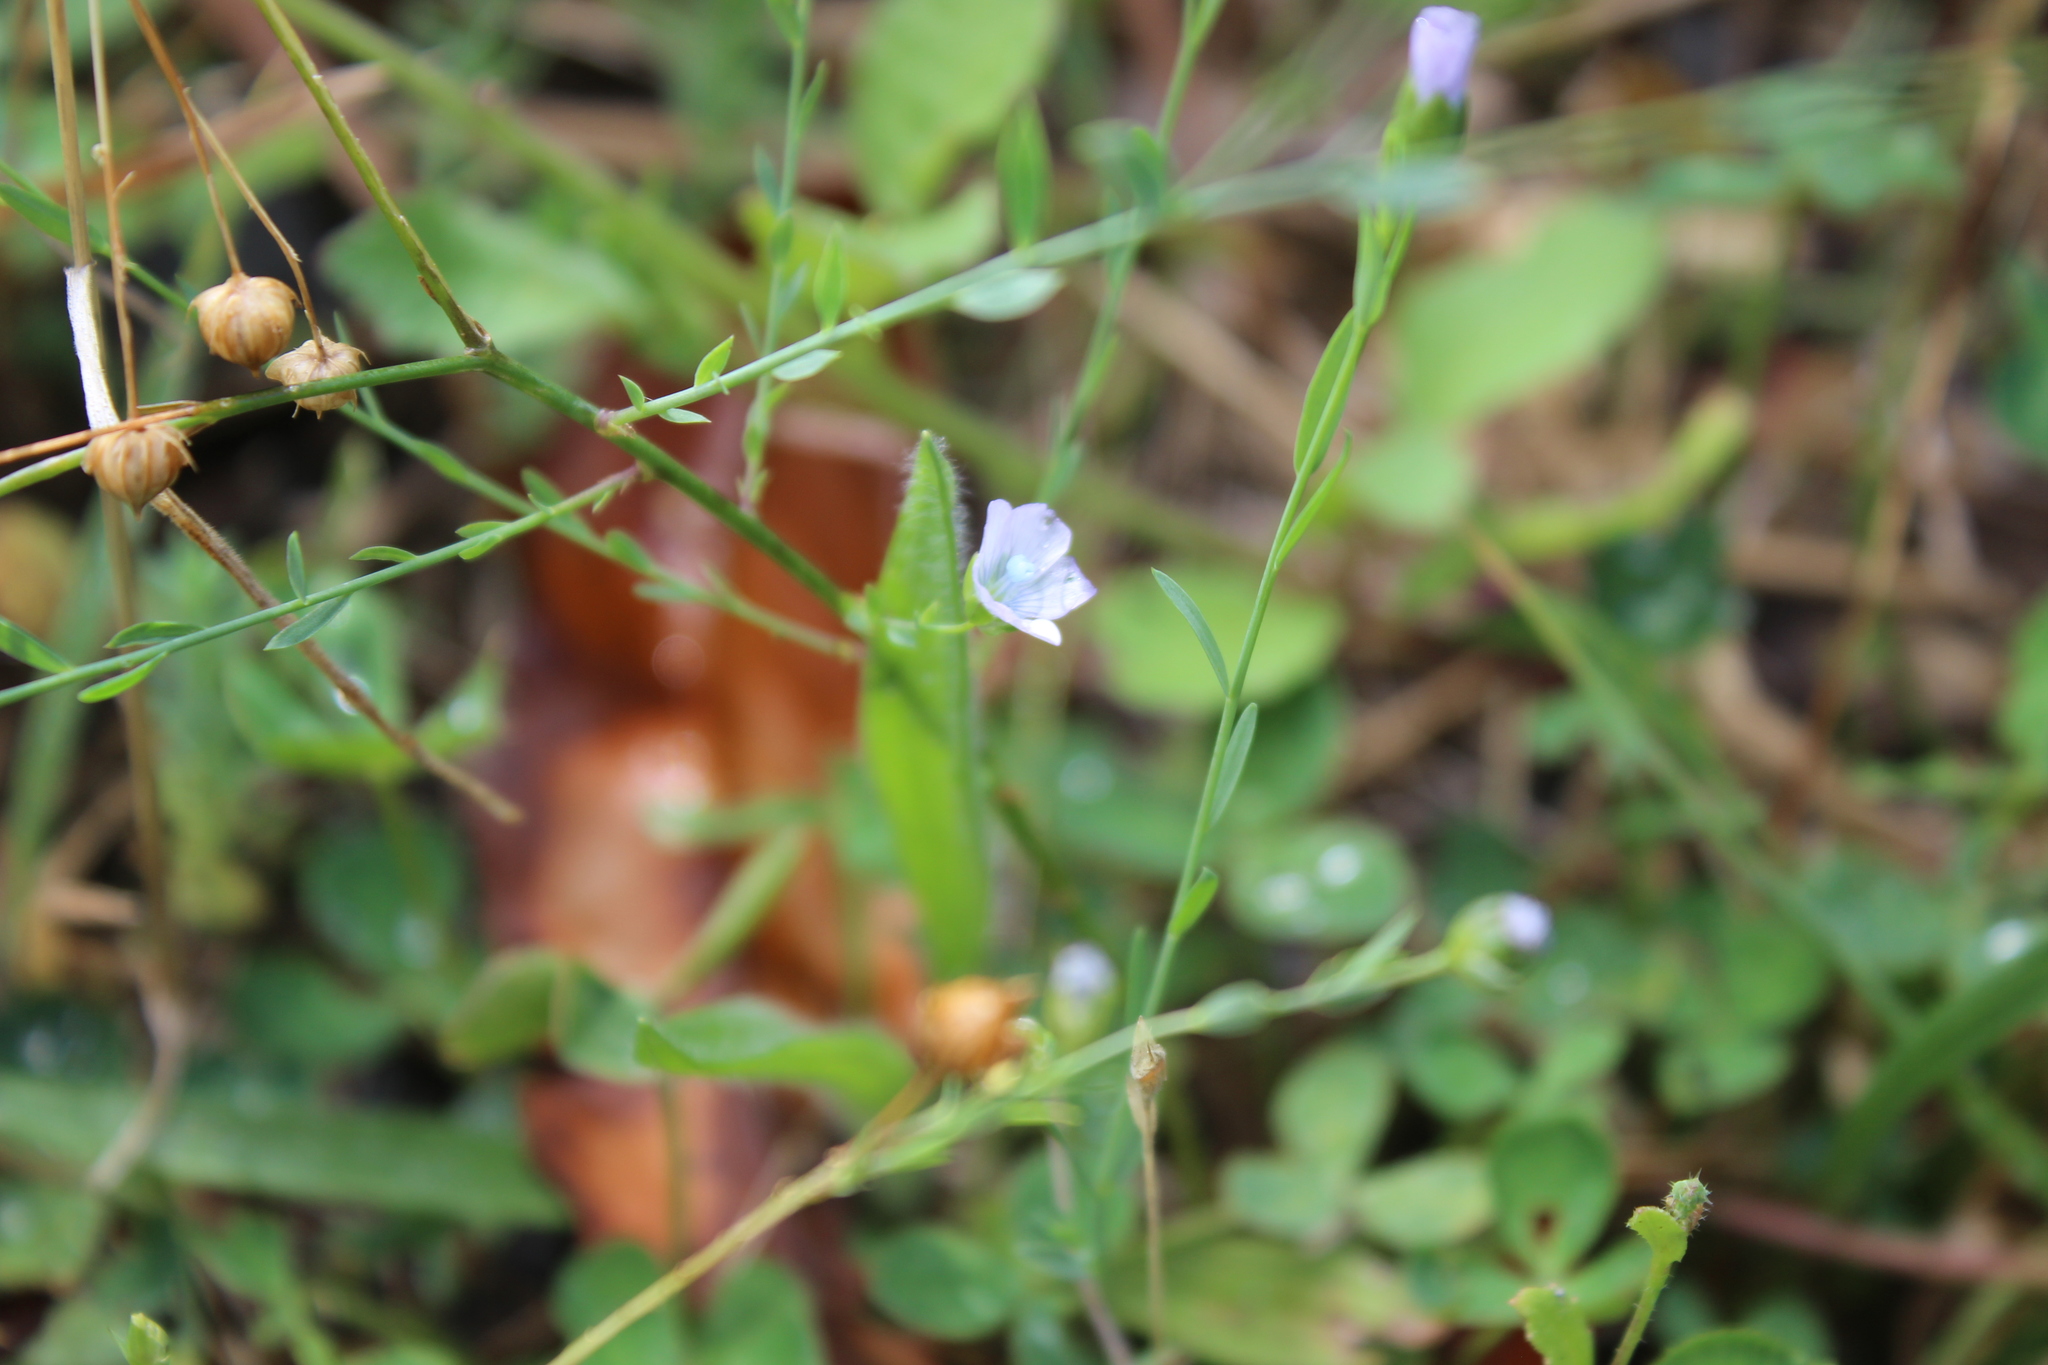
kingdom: Plantae
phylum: Tracheophyta
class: Magnoliopsida
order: Malpighiales
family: Linaceae
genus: Linum
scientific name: Linum bienne
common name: Pale flax
